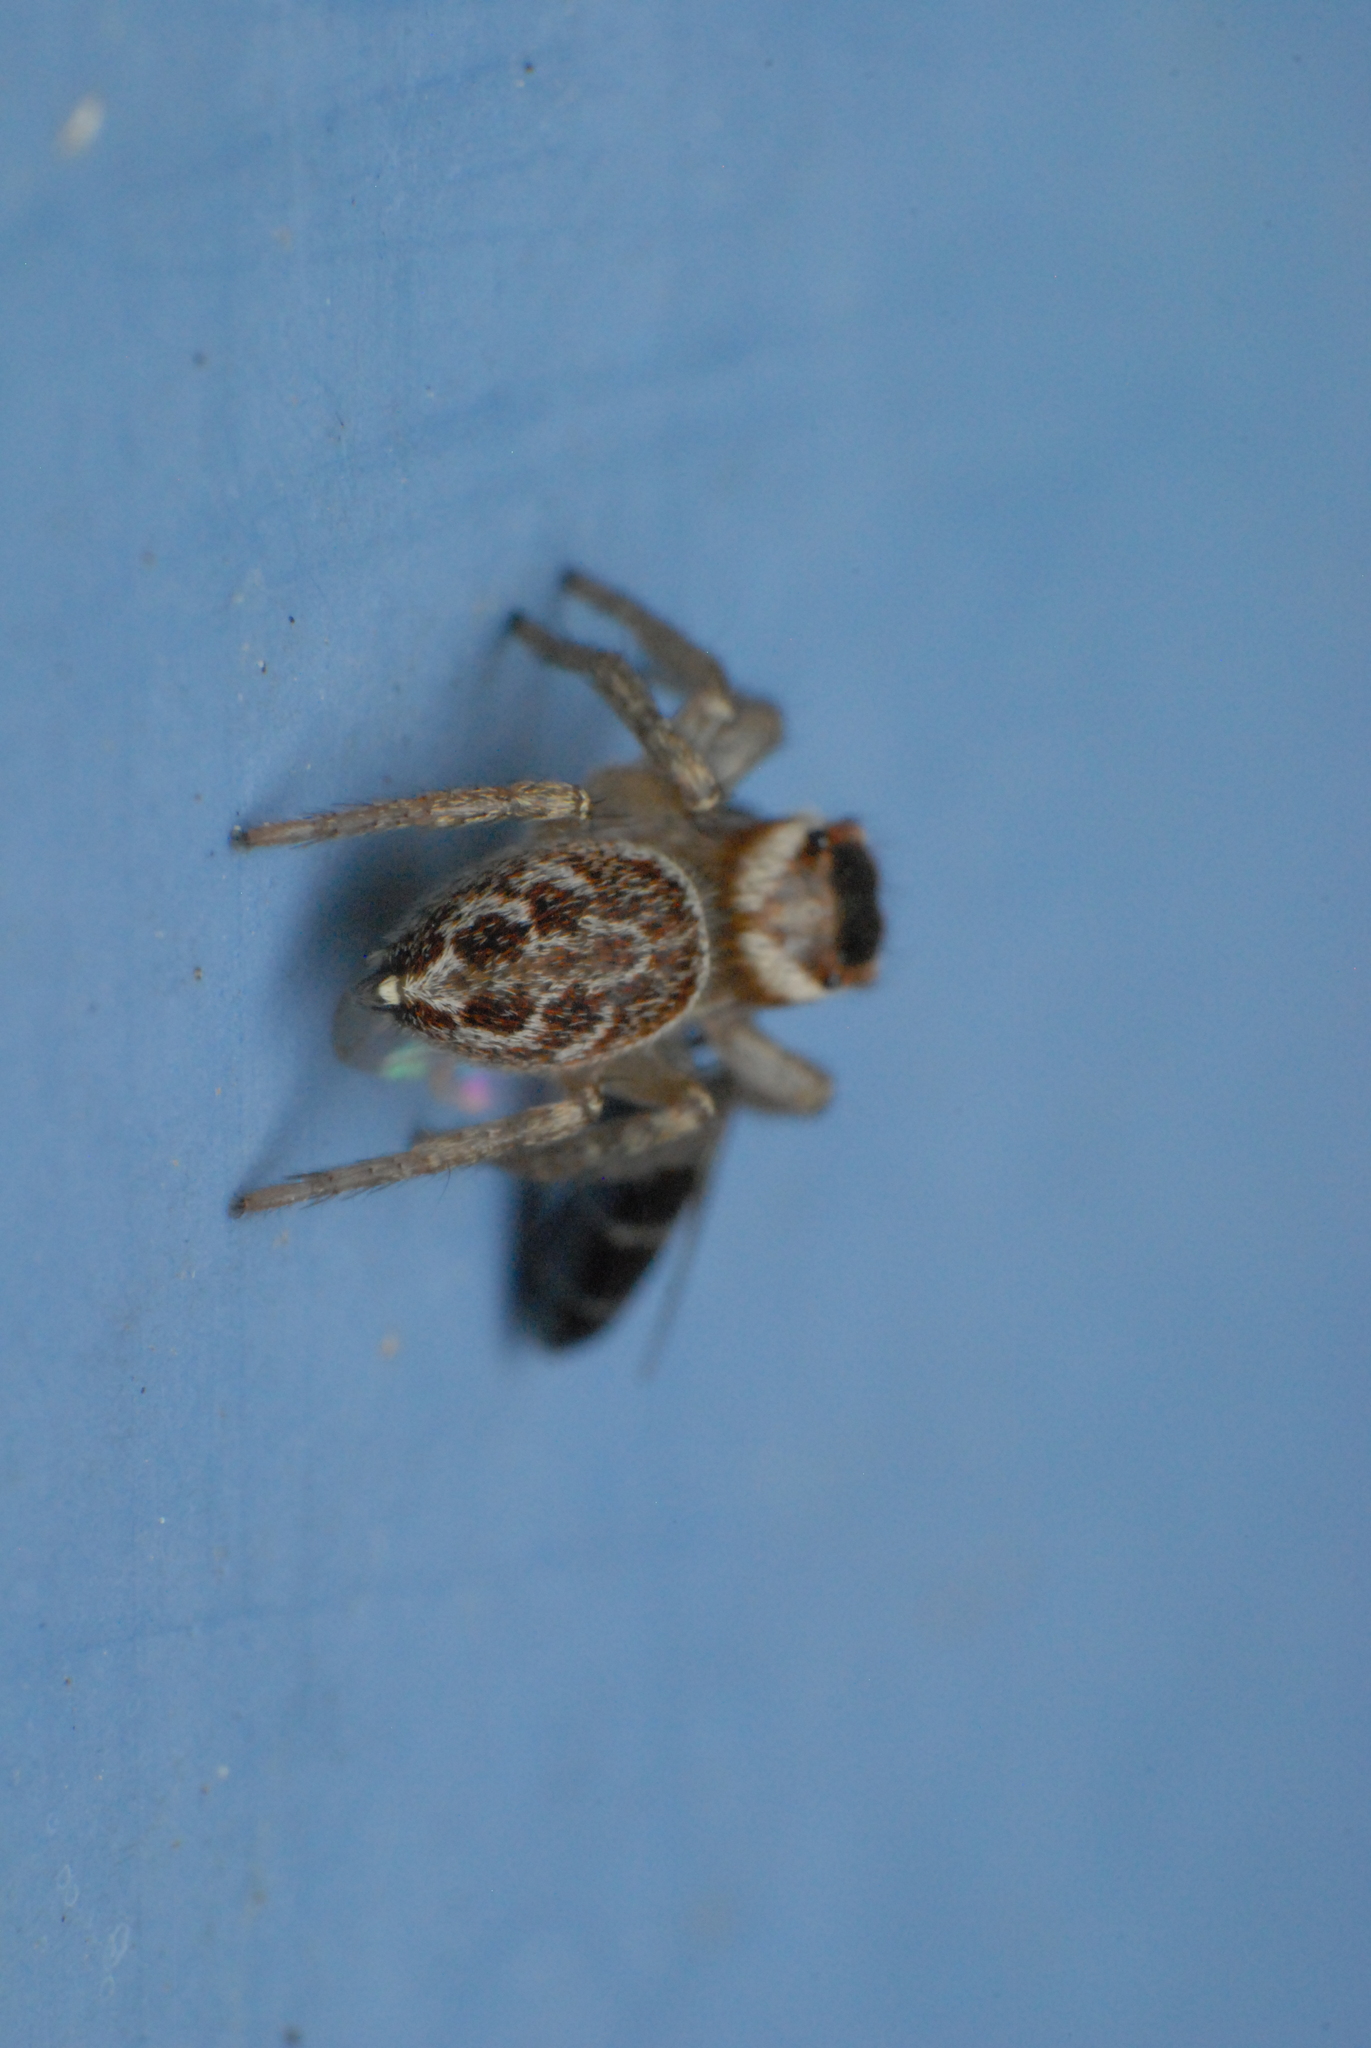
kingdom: Animalia
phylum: Arthropoda
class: Arachnida
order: Araneae
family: Salticidae
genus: Maratus
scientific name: Maratus griseus
